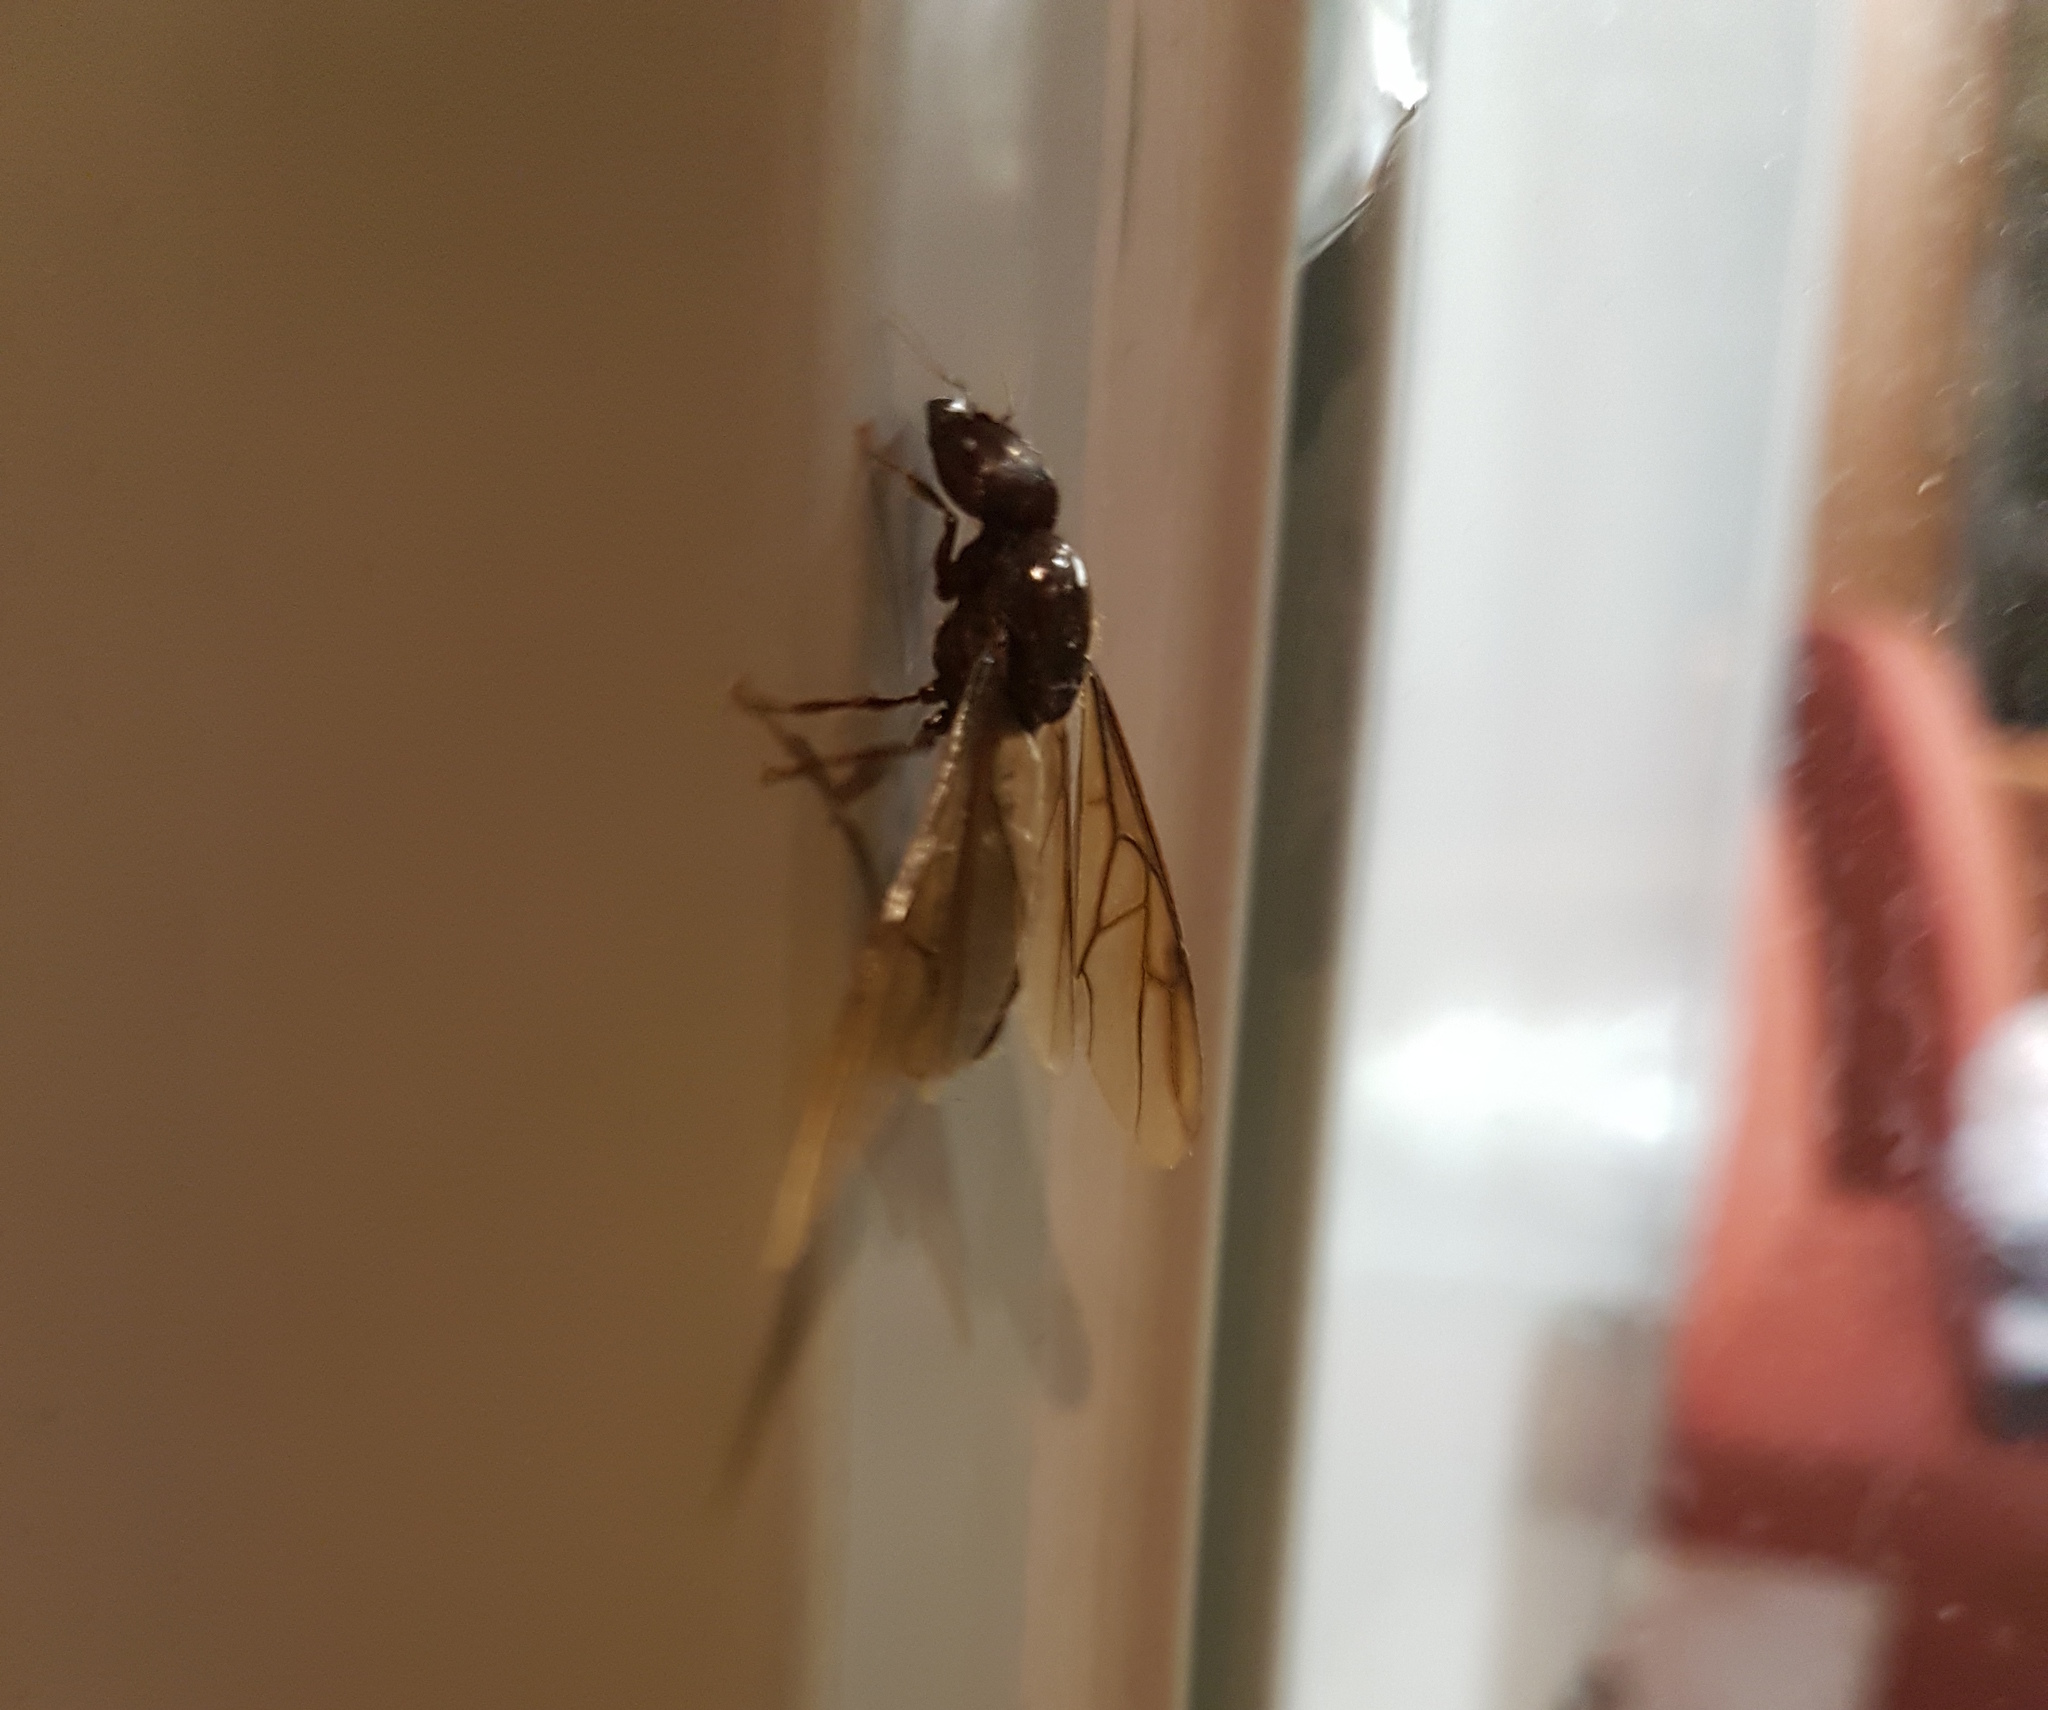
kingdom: Animalia
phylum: Arthropoda
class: Insecta
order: Hymenoptera
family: Formicidae
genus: Pheidologeton
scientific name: Pheidologeton diversus
